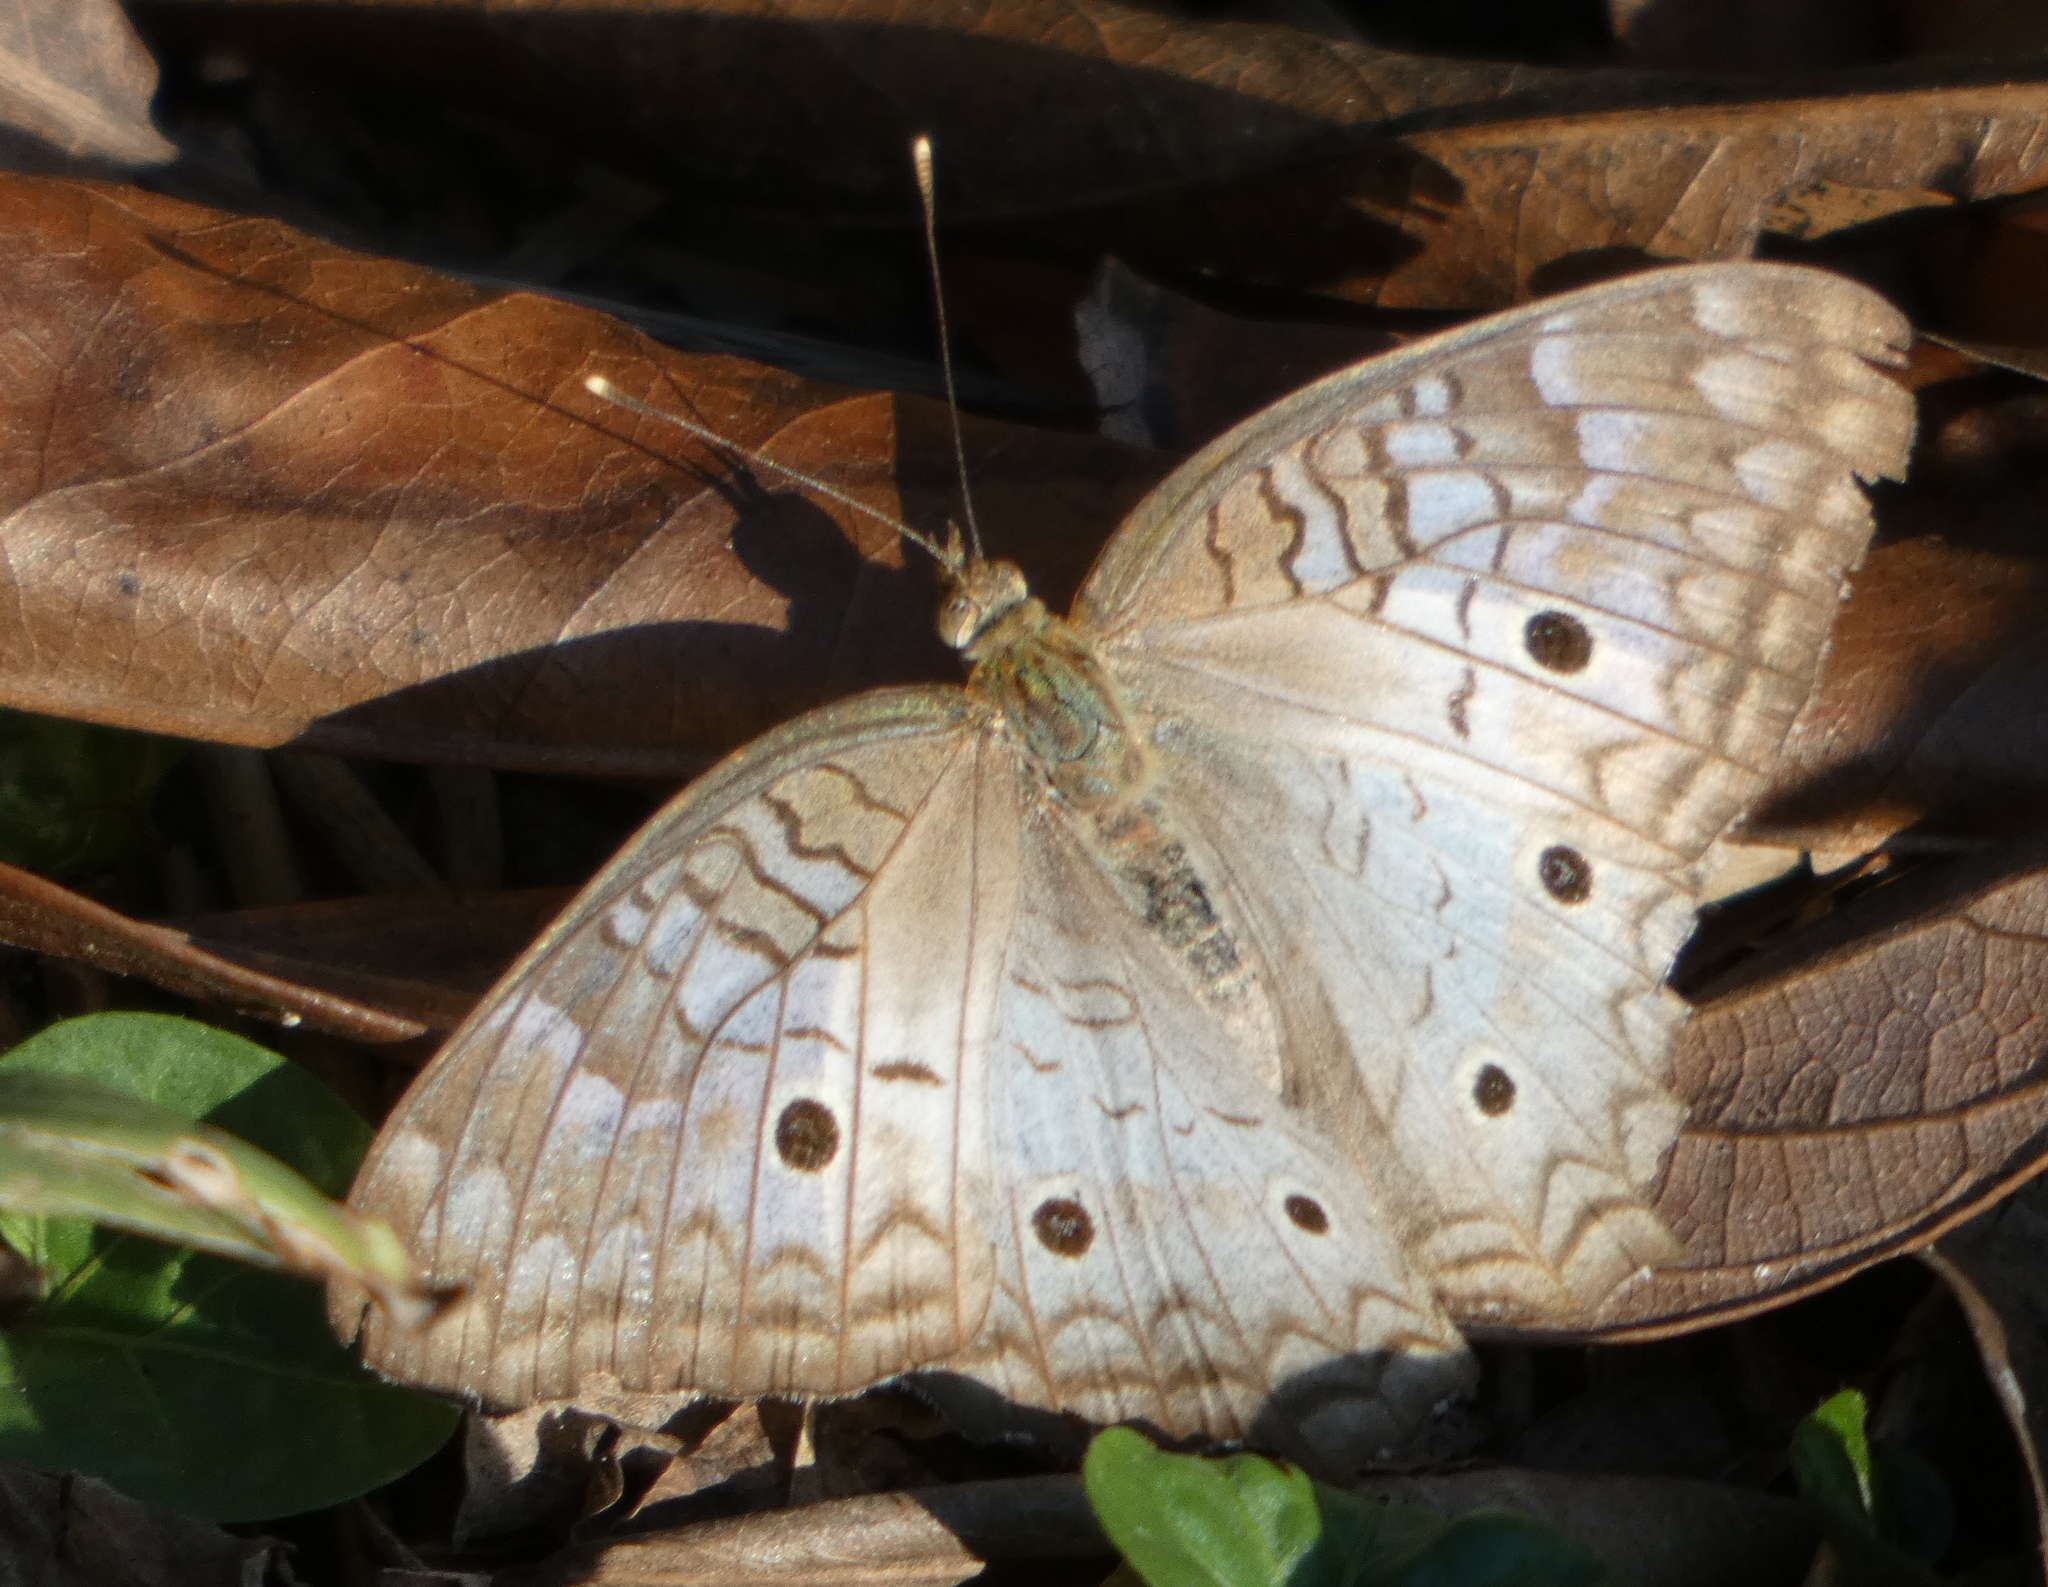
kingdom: Animalia
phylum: Arthropoda
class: Insecta
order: Lepidoptera
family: Nymphalidae
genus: Anartia
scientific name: Anartia jatrophae
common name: White peacock
